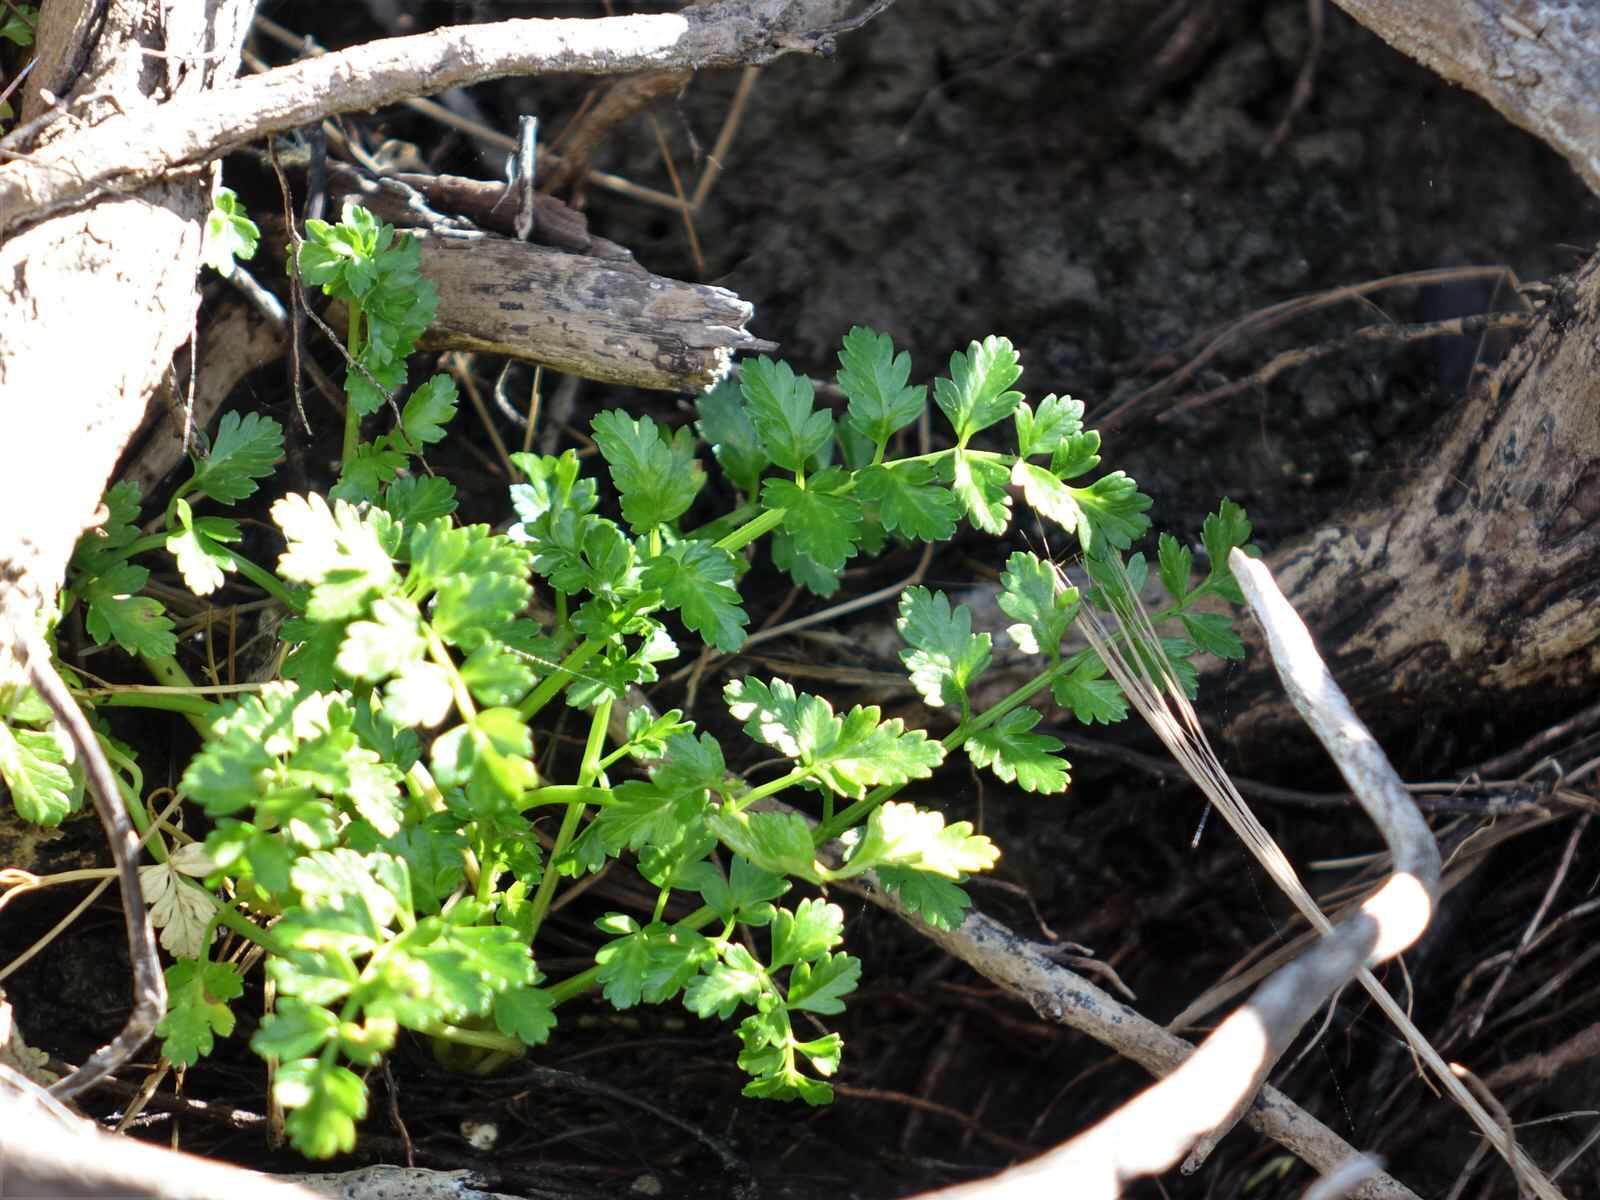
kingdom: Plantae
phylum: Tracheophyta
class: Magnoliopsida
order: Apiales
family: Apiaceae
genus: Apium
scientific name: Apium prostratum
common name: Prostrate marshwort
